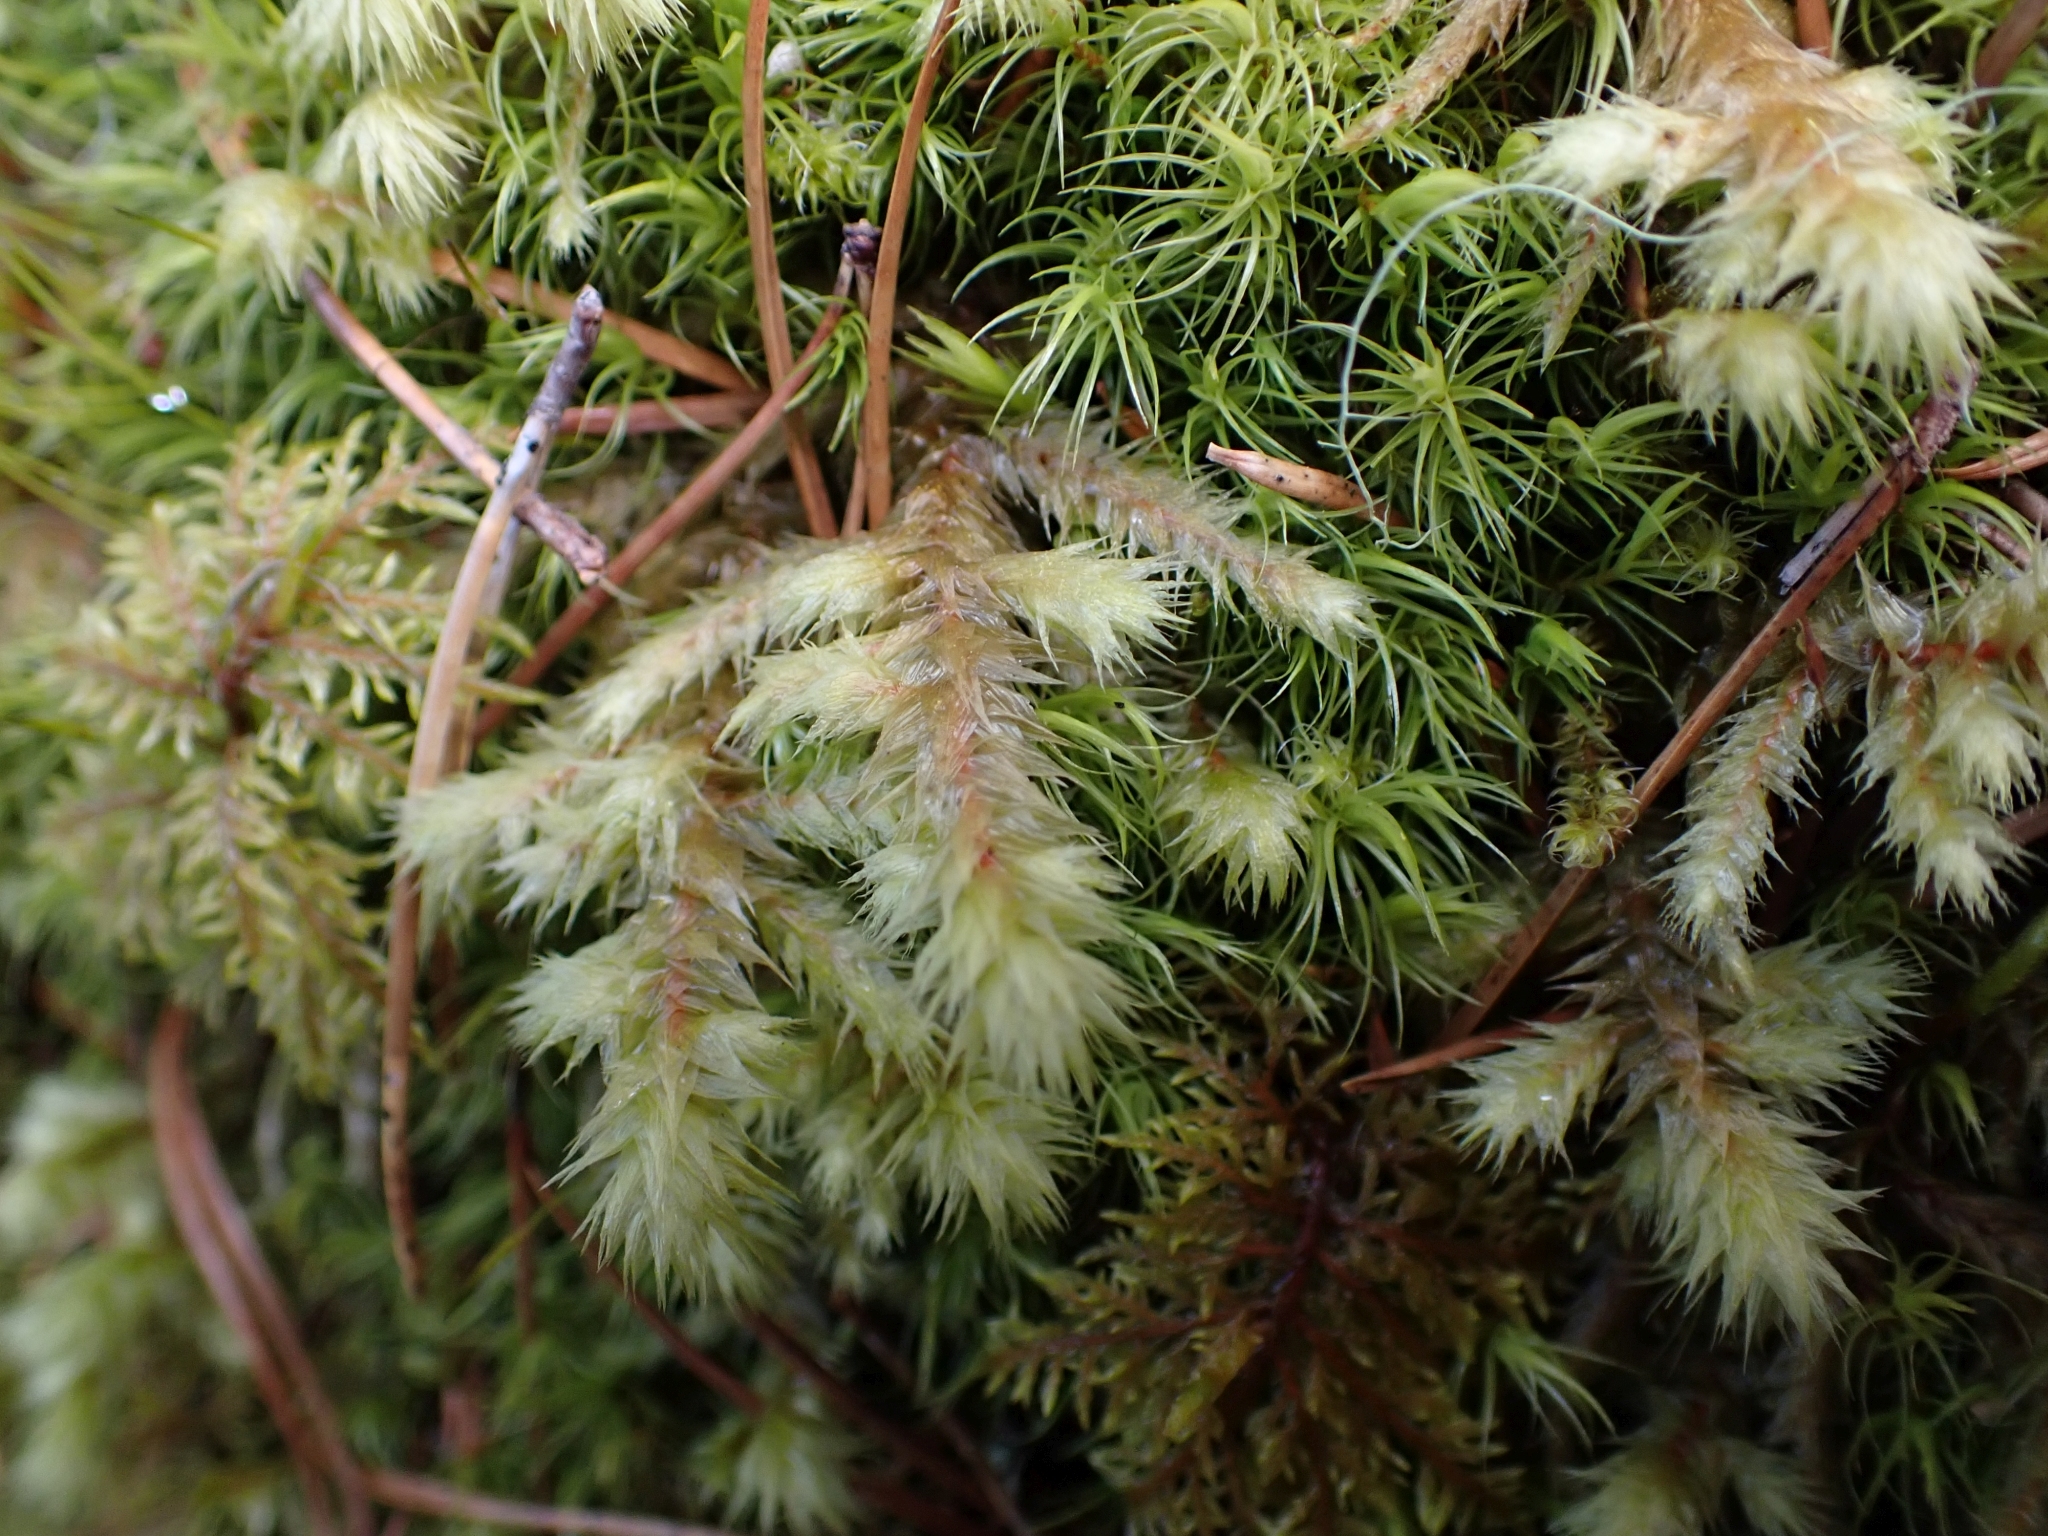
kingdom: Plantae
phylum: Bryophyta
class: Bryopsida
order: Hypnales
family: Hylocomiaceae
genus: Hylocomiadelphus
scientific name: Hylocomiadelphus triquetrus
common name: Rough goose neck moss
